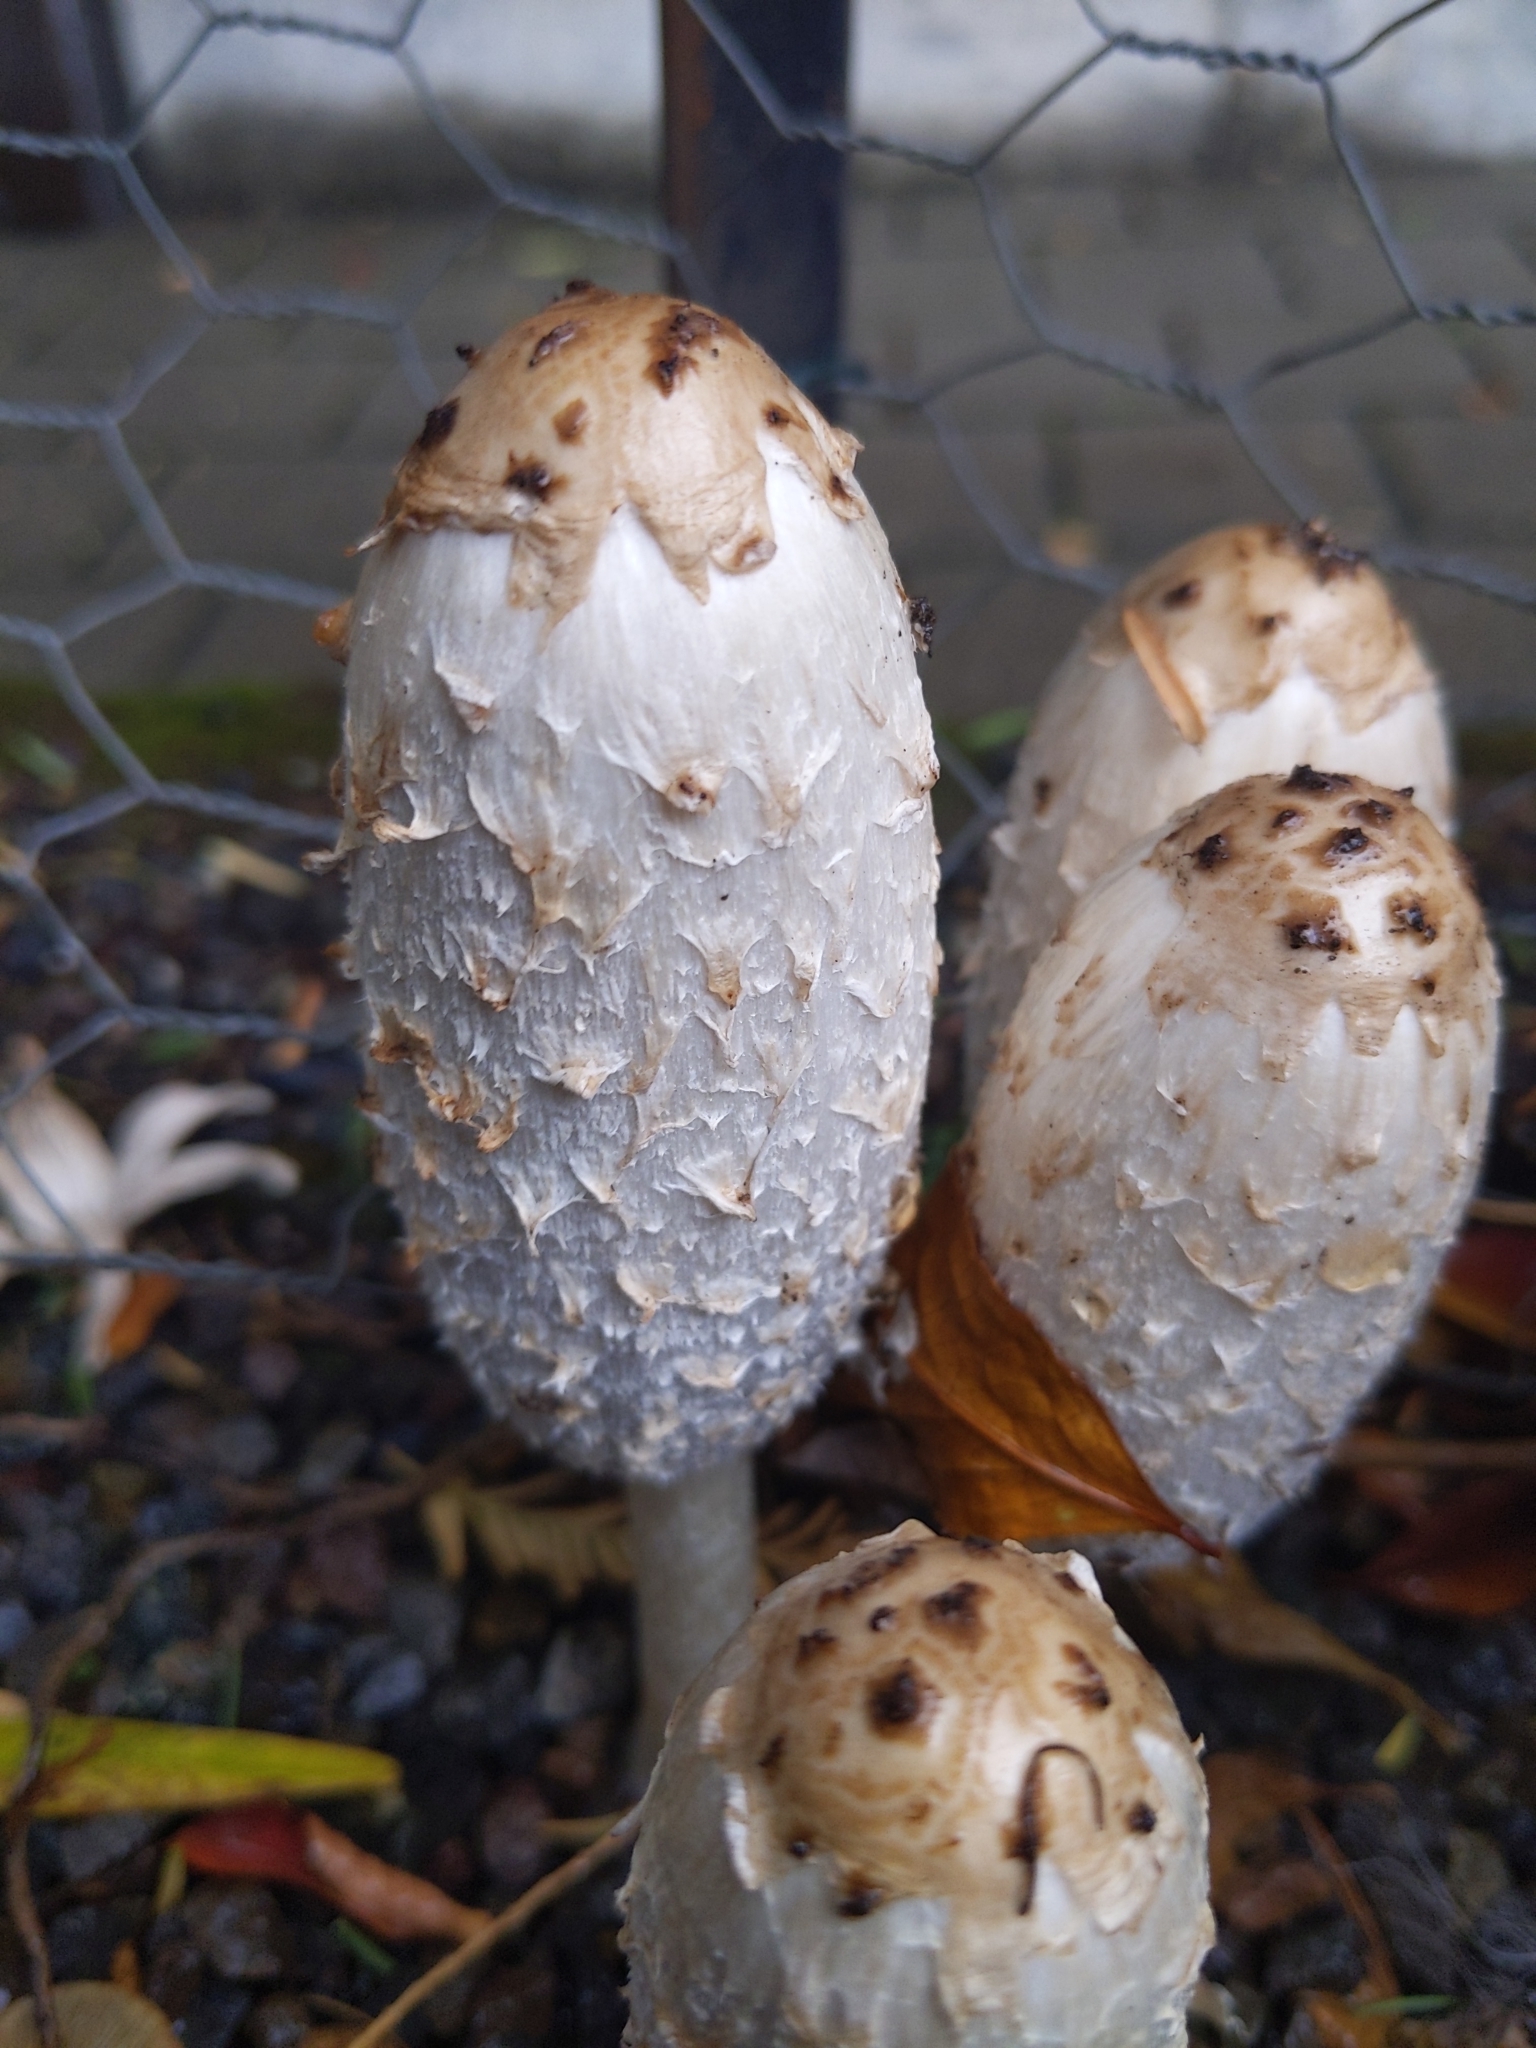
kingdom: Fungi
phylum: Basidiomycota
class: Agaricomycetes
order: Agaricales
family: Agaricaceae
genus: Coprinus
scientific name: Coprinus comatus
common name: Lawyer's wig
